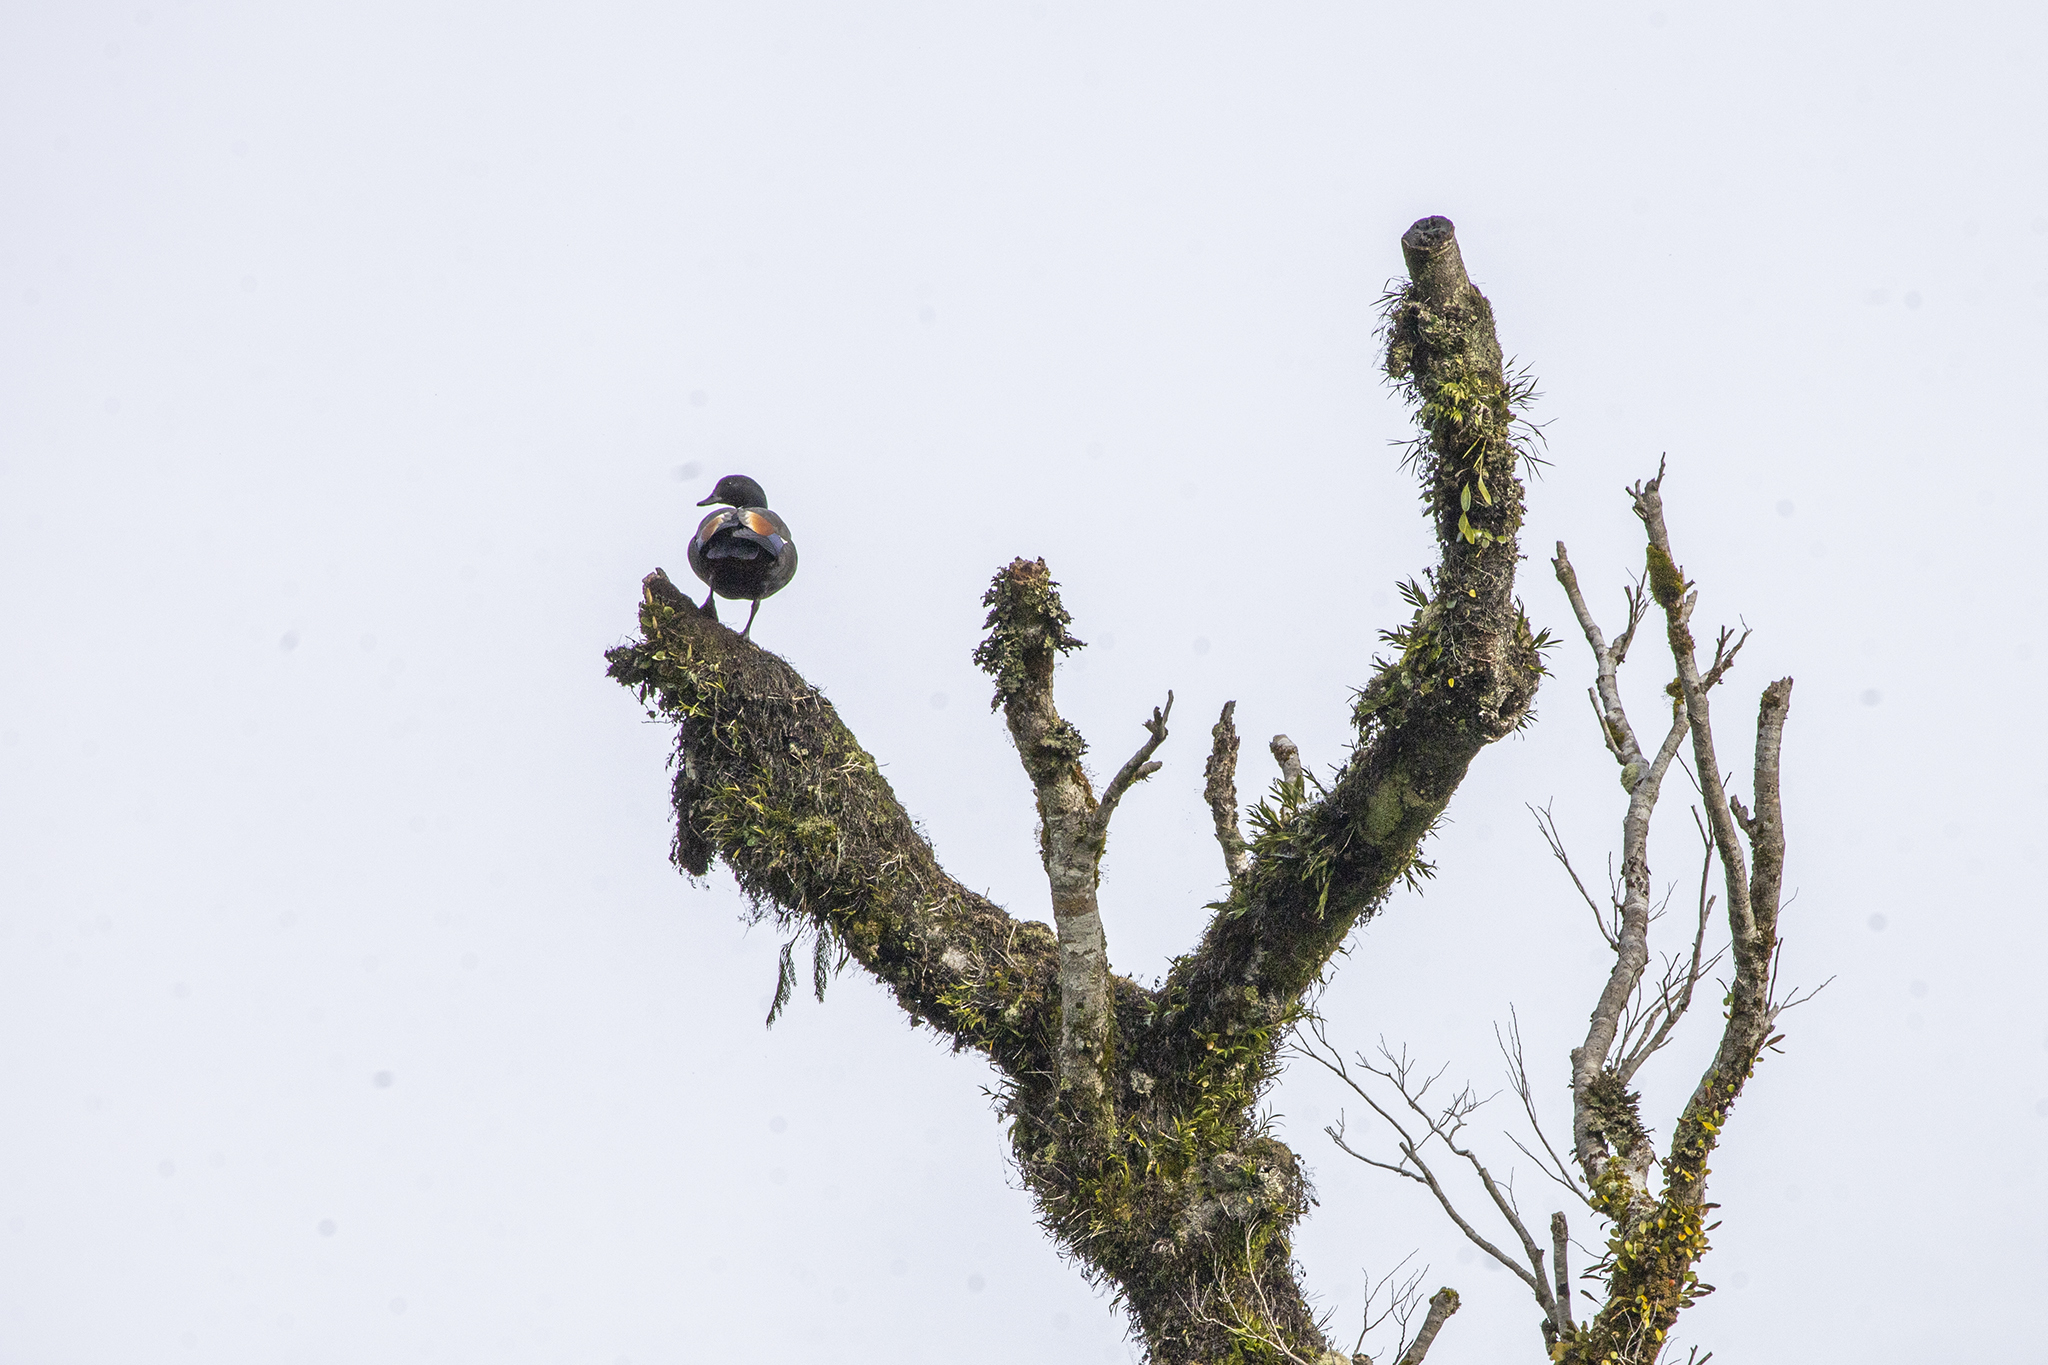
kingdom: Animalia
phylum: Chordata
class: Aves
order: Anseriformes
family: Anatidae
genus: Tadorna
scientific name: Tadorna variegata
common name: Paradise shelduck
